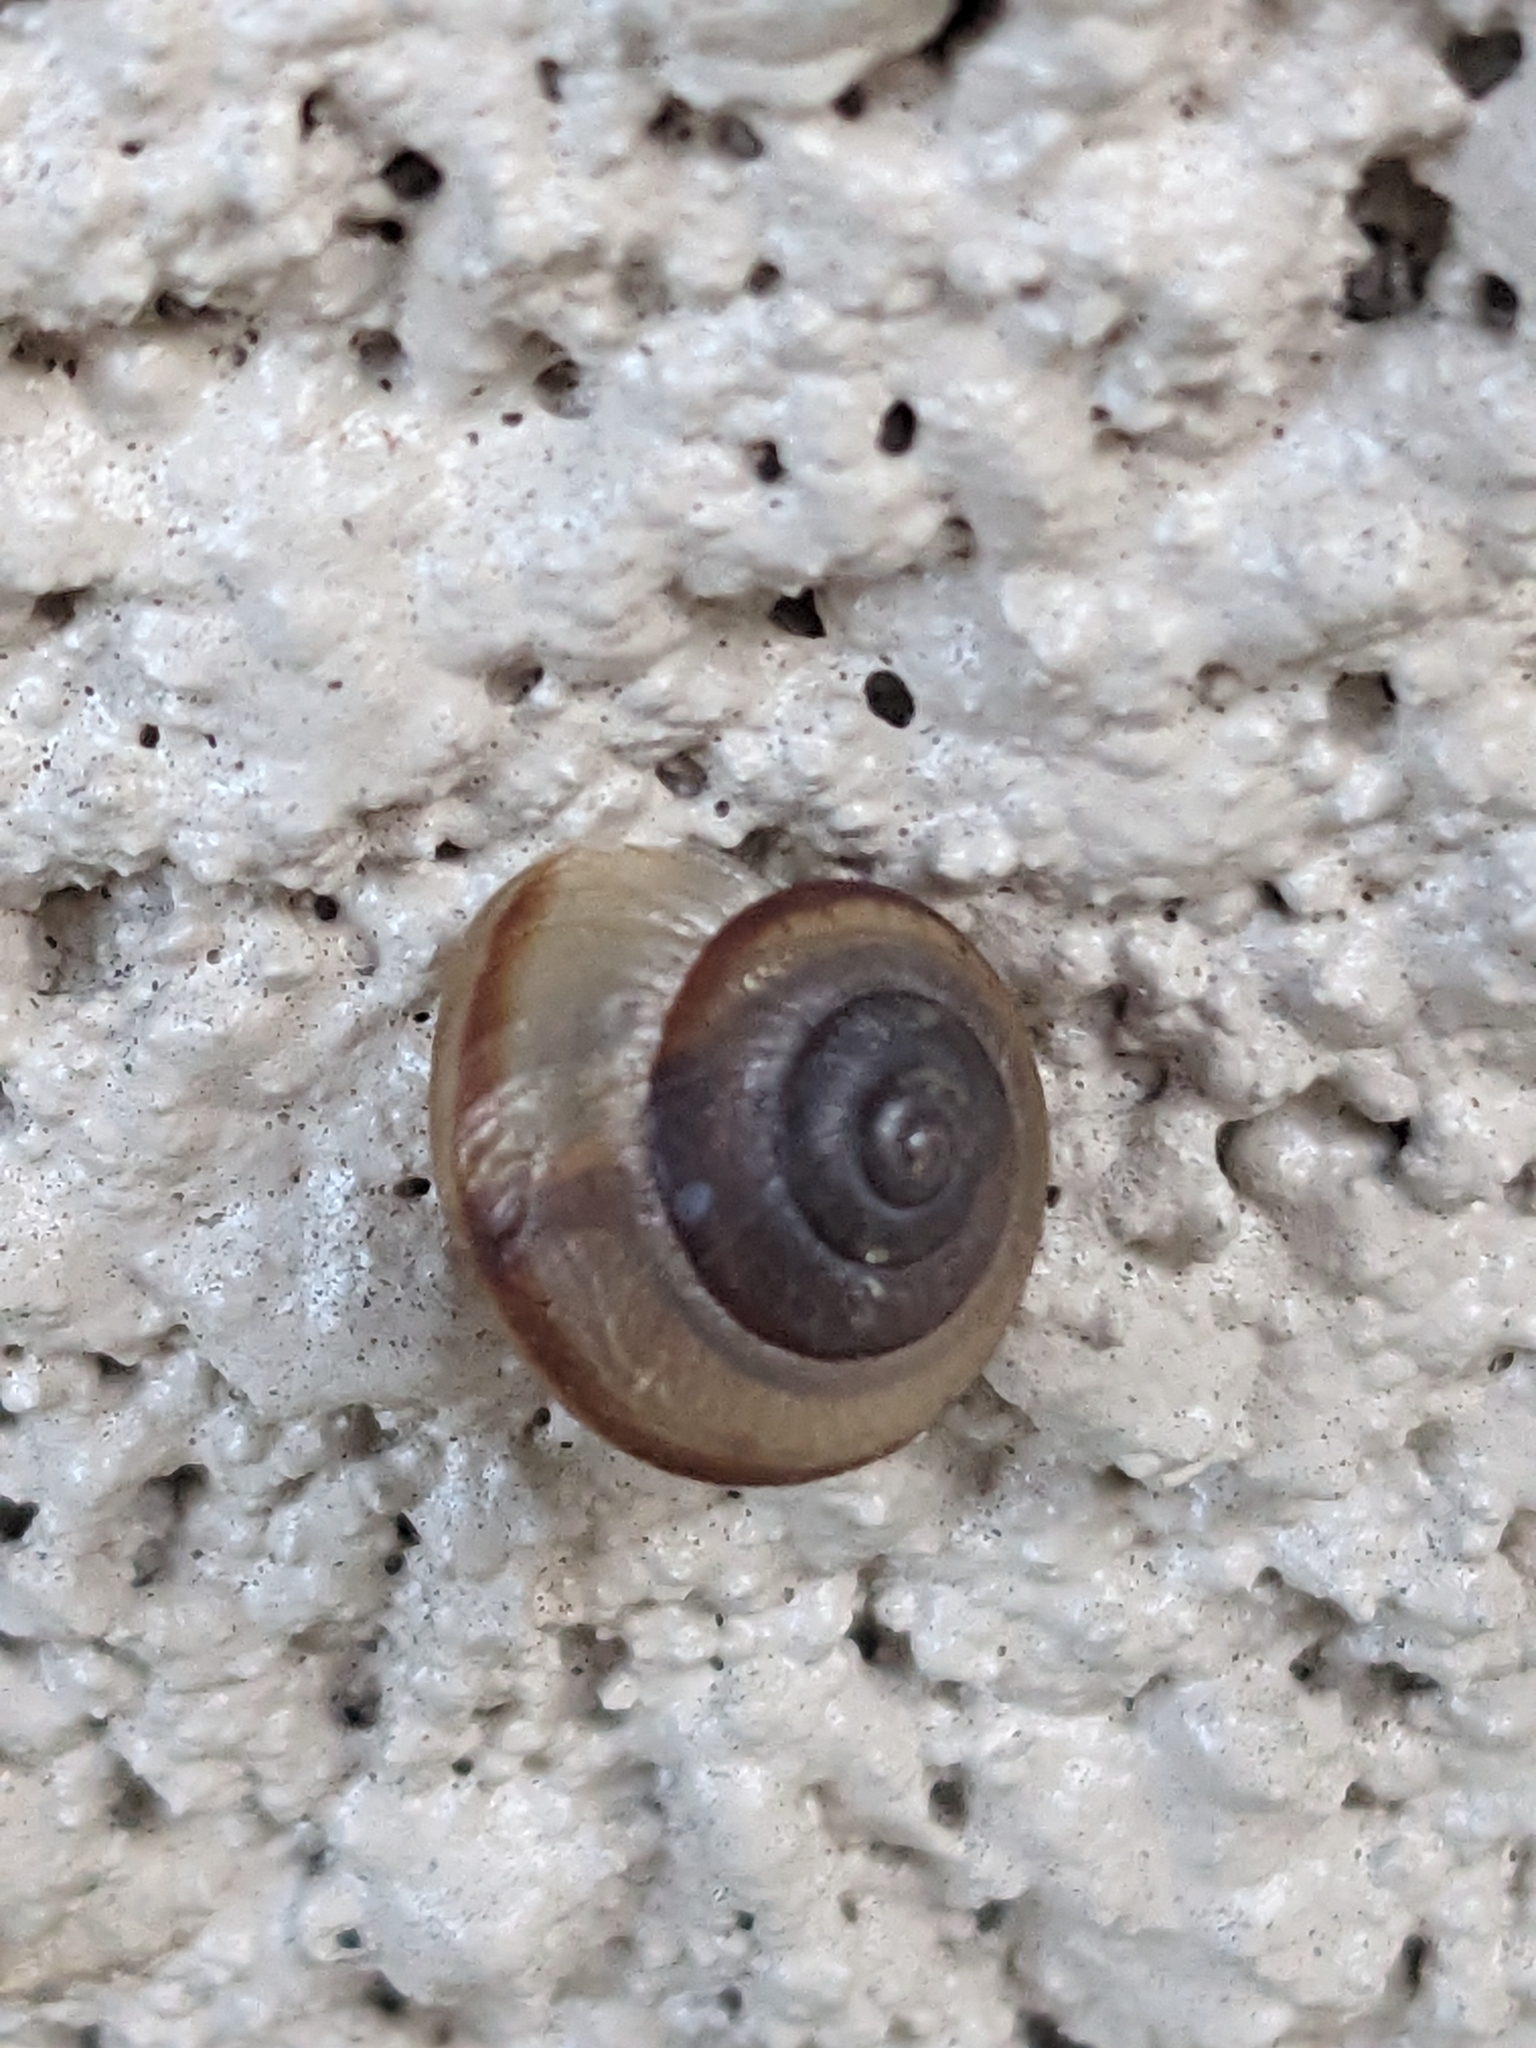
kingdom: Animalia
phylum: Mollusca
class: Gastropoda
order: Stylommatophora
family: Camaenidae
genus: Bradybaena
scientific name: Bradybaena similaris
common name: Asian trampsnail
